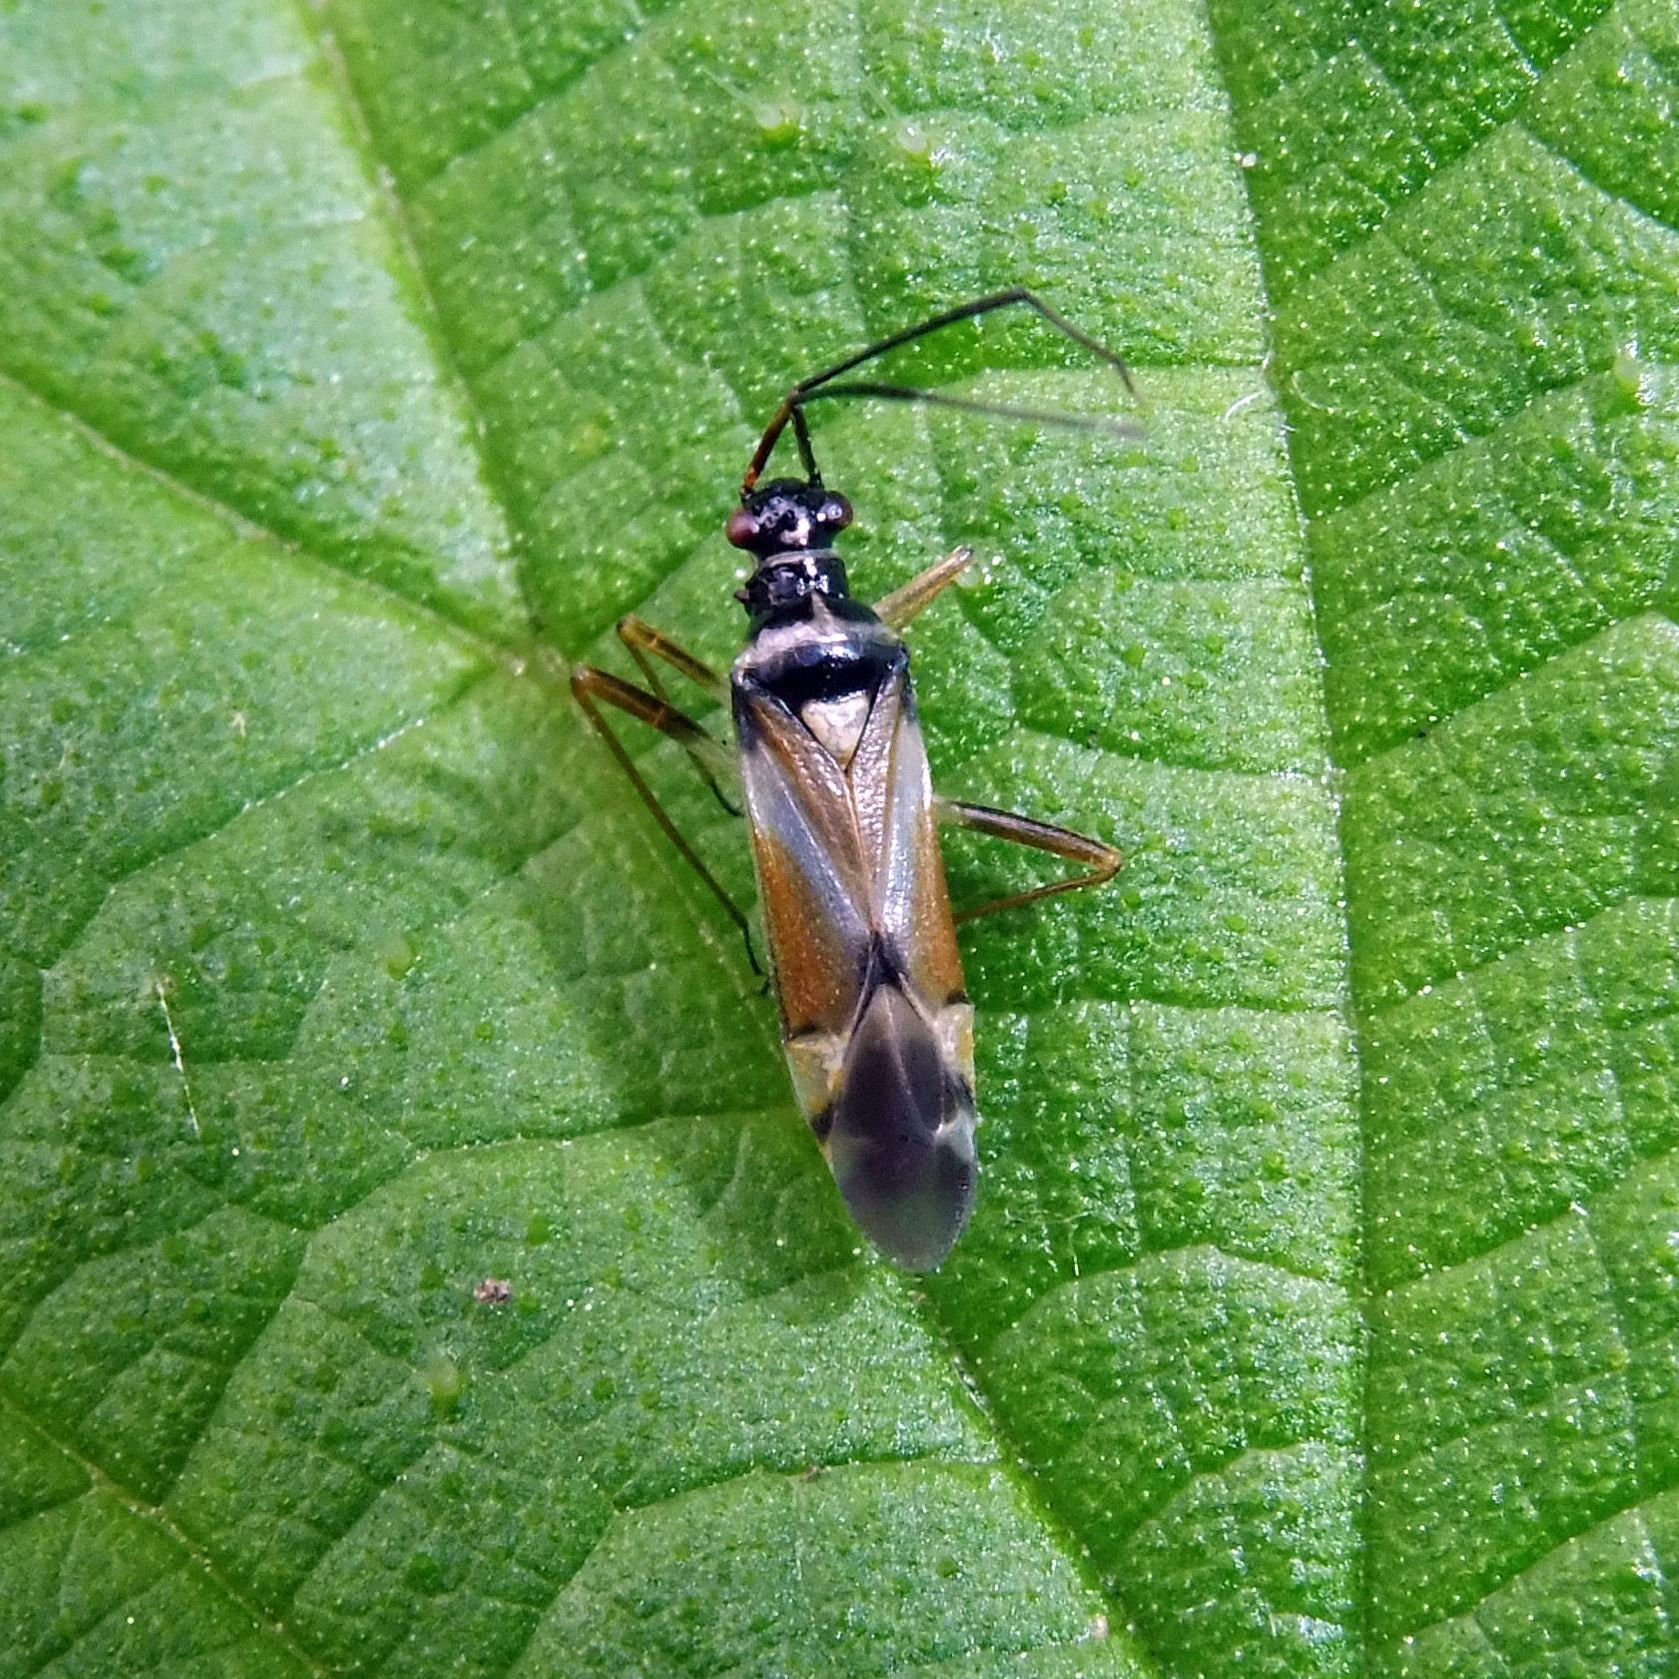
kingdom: Animalia
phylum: Arthropoda
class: Insecta
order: Hemiptera
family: Miridae
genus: Cyllecoris
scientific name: Cyllecoris histrionius
